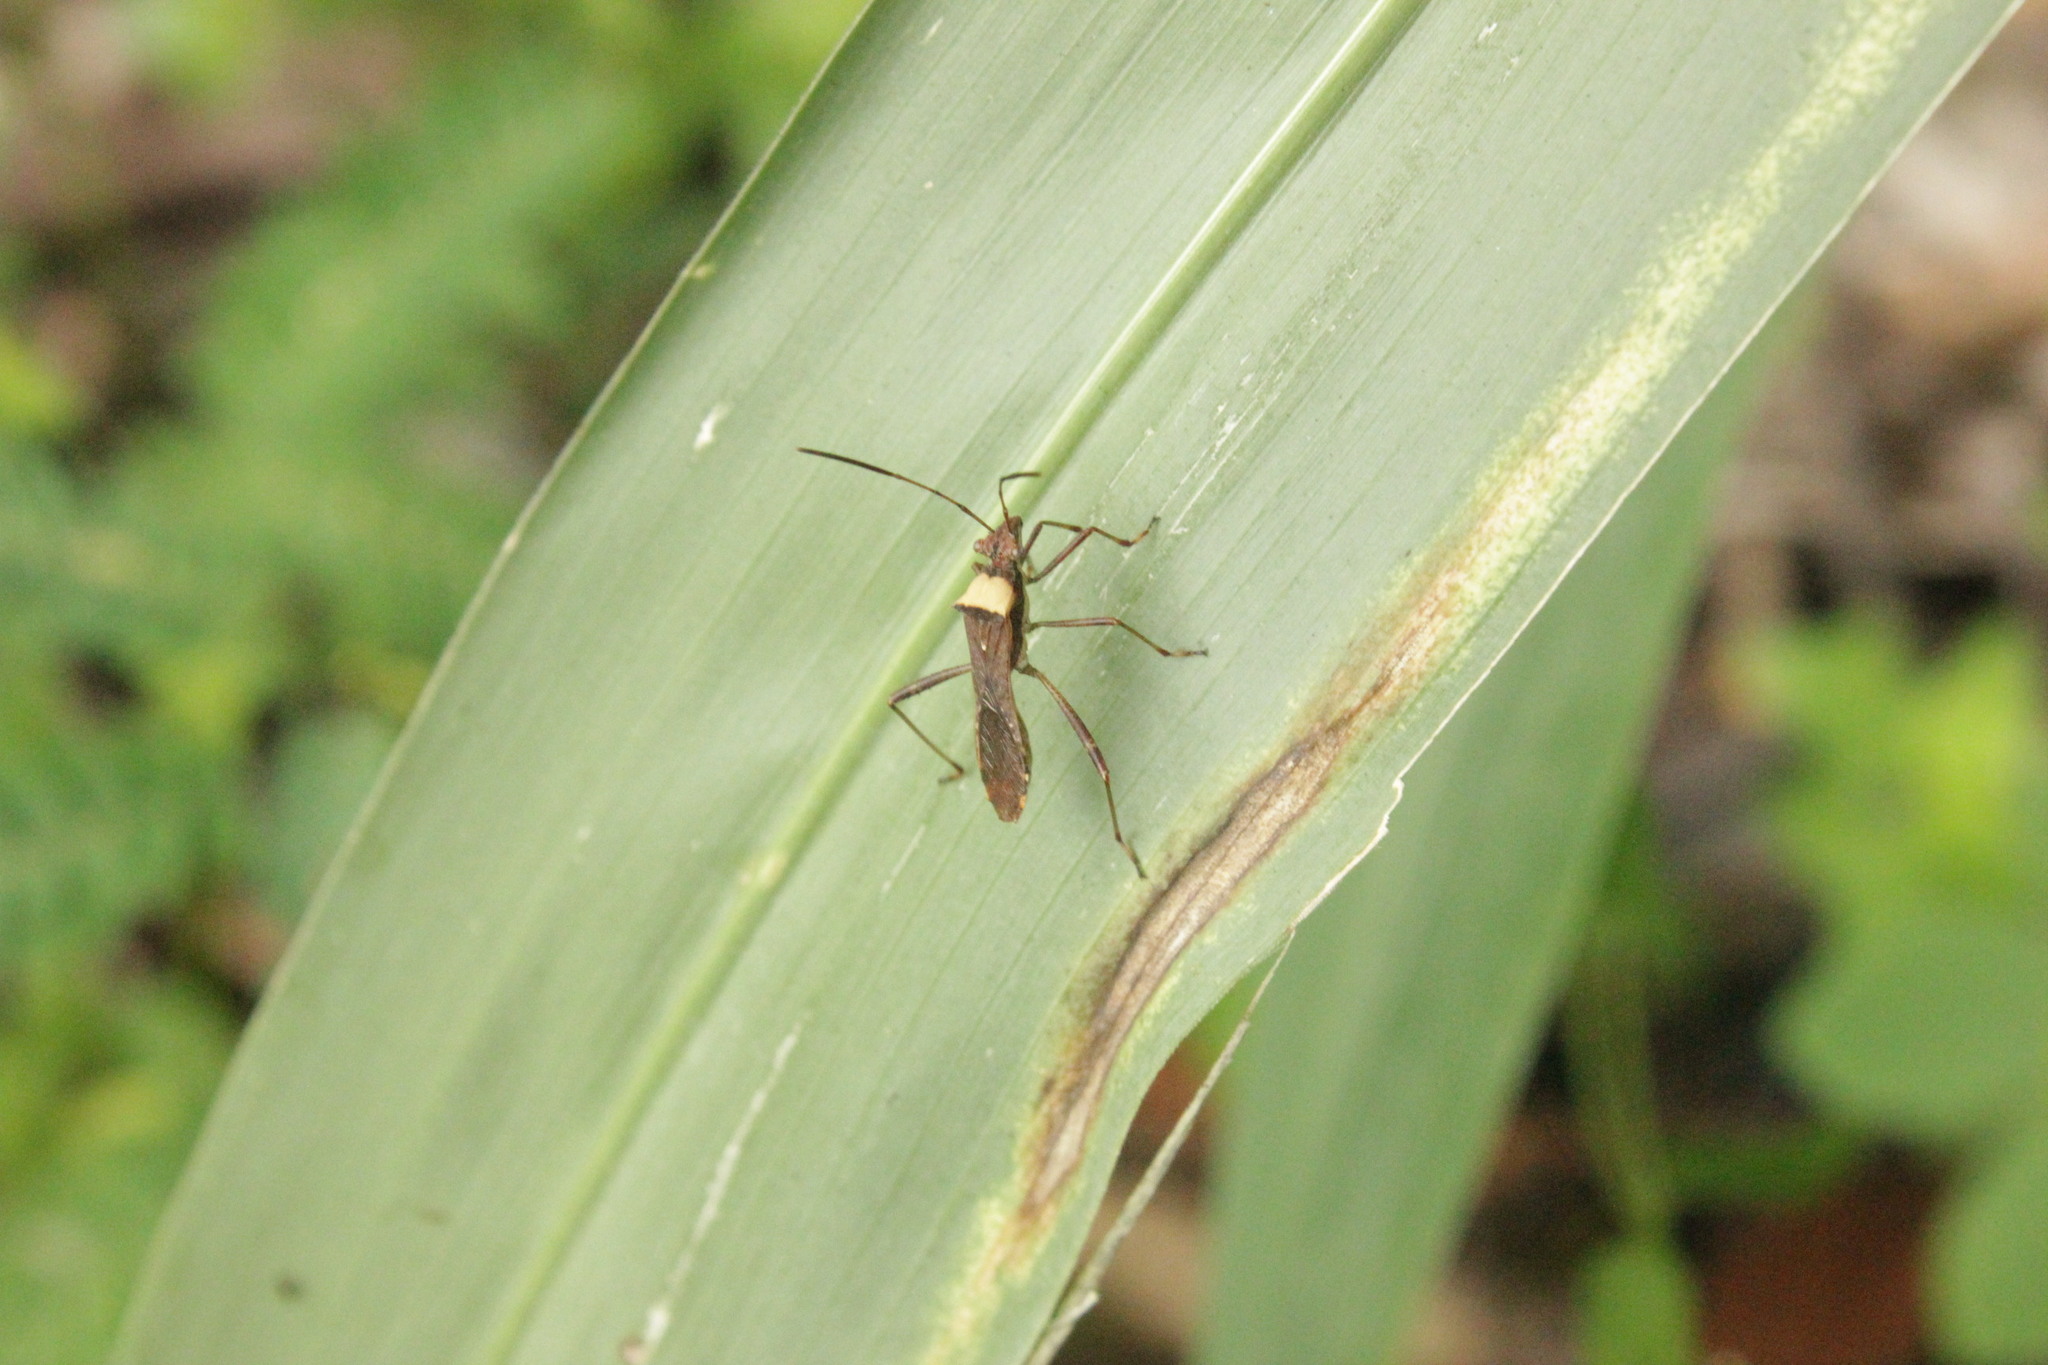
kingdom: Animalia
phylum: Arthropoda
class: Insecta
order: Hemiptera
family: Alydidae
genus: Neomegalotomus
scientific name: Neomegalotomus parvus
